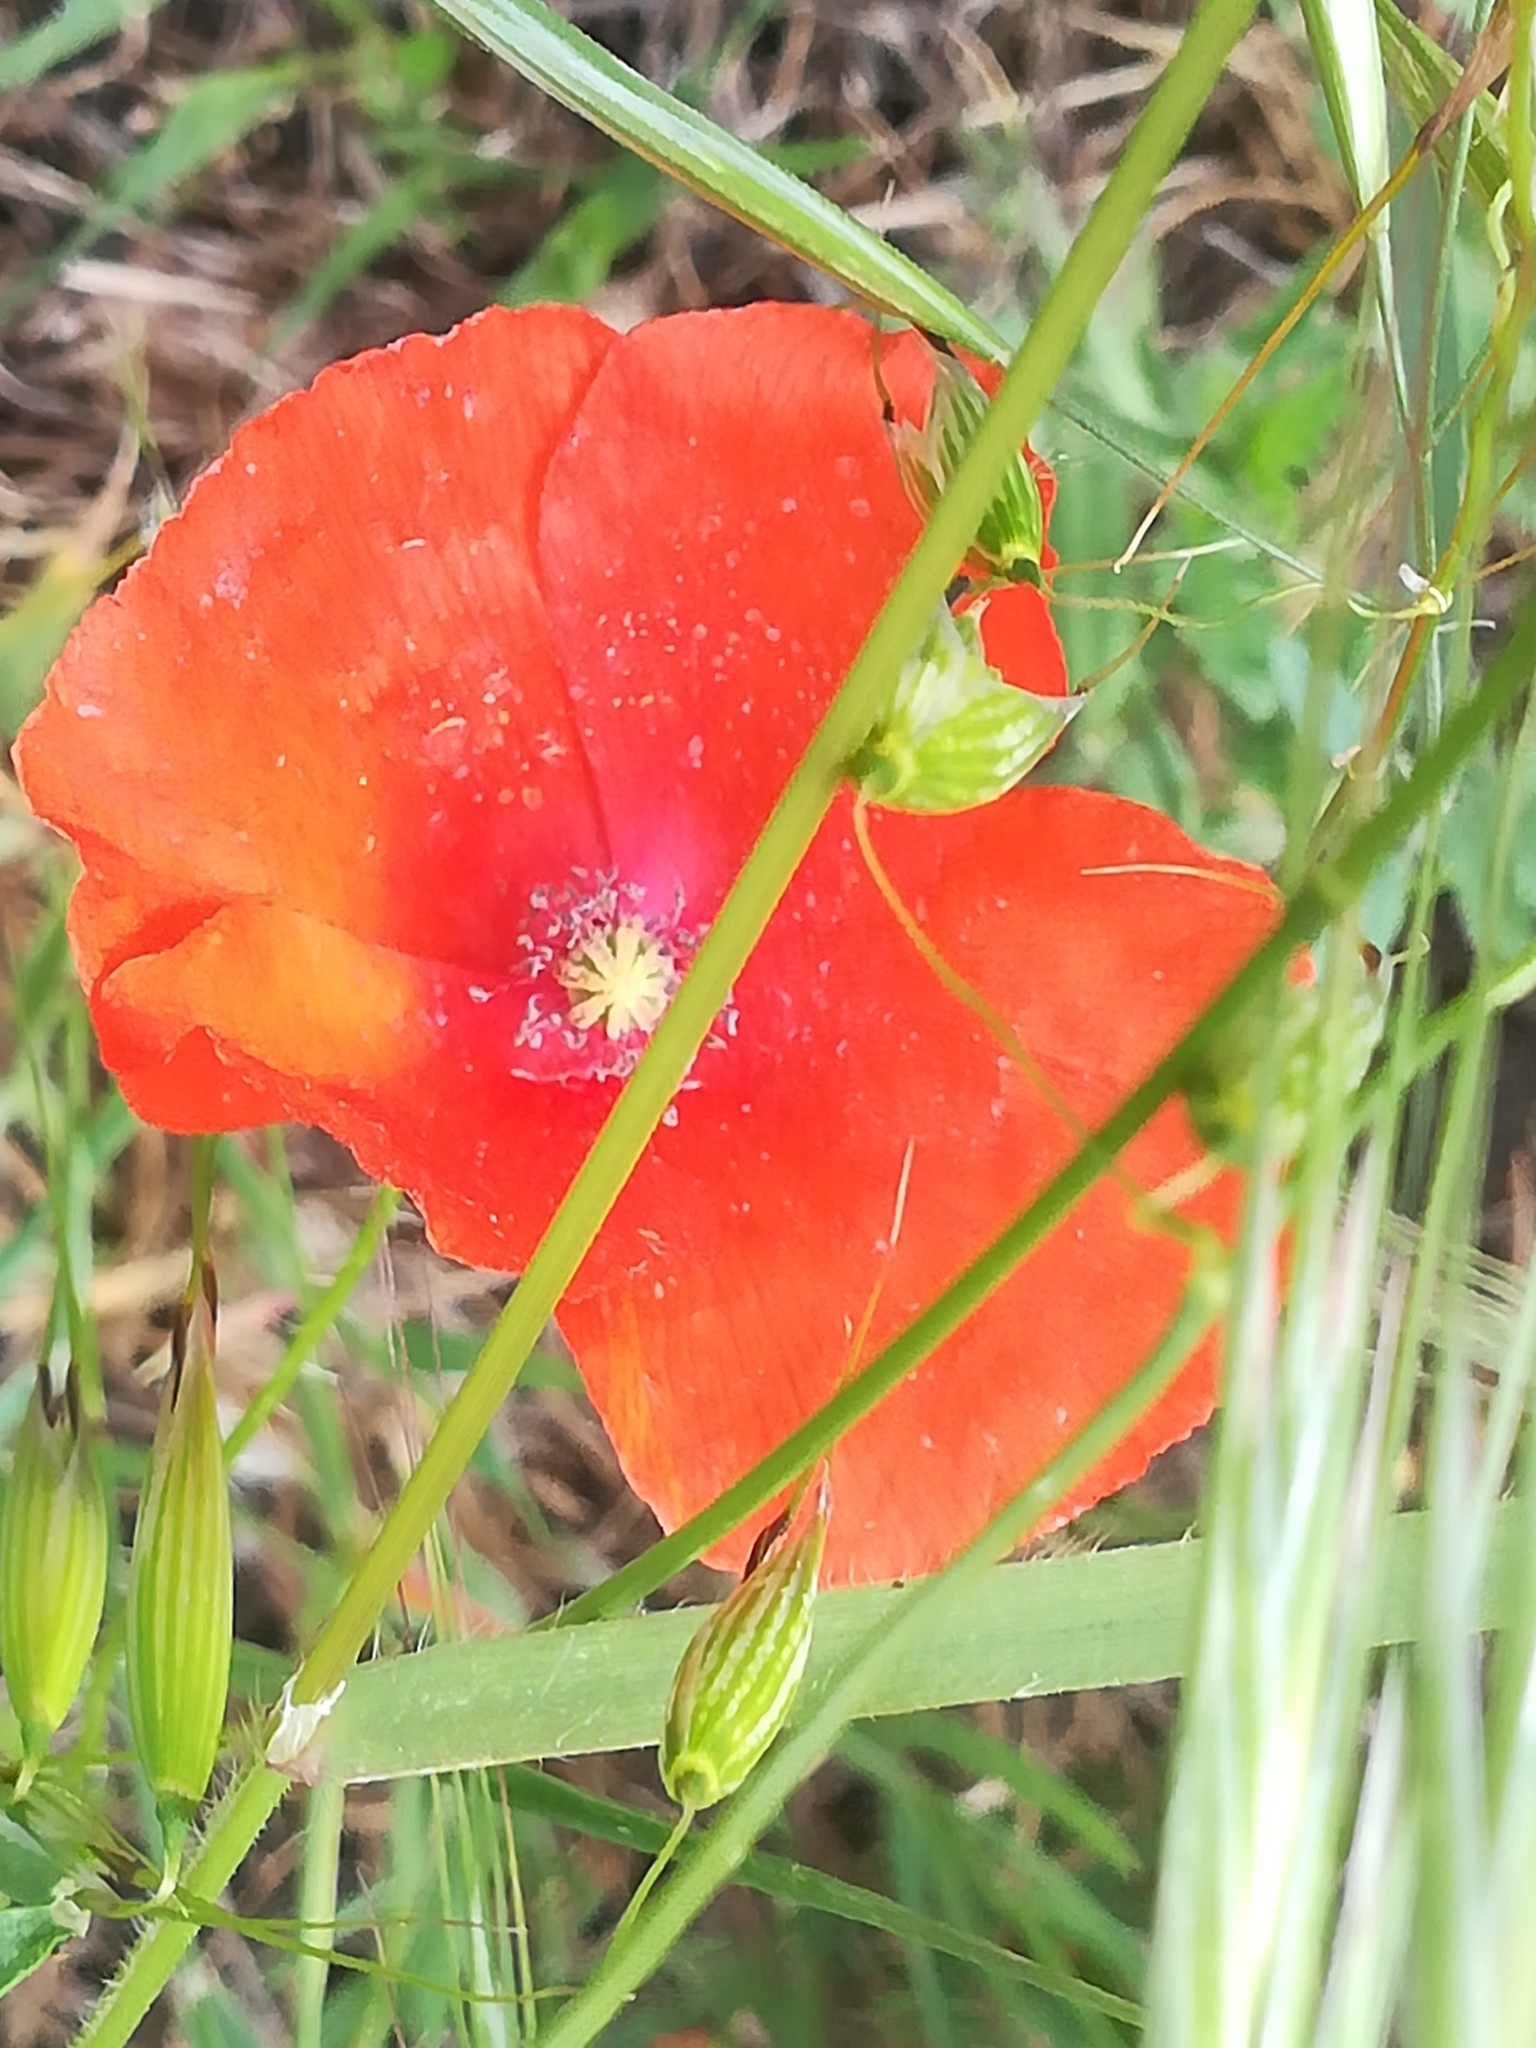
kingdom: Plantae
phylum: Tracheophyta
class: Magnoliopsida
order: Ranunculales
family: Papaveraceae
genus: Papaver
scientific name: Papaver rhoeas
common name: Corn poppy
